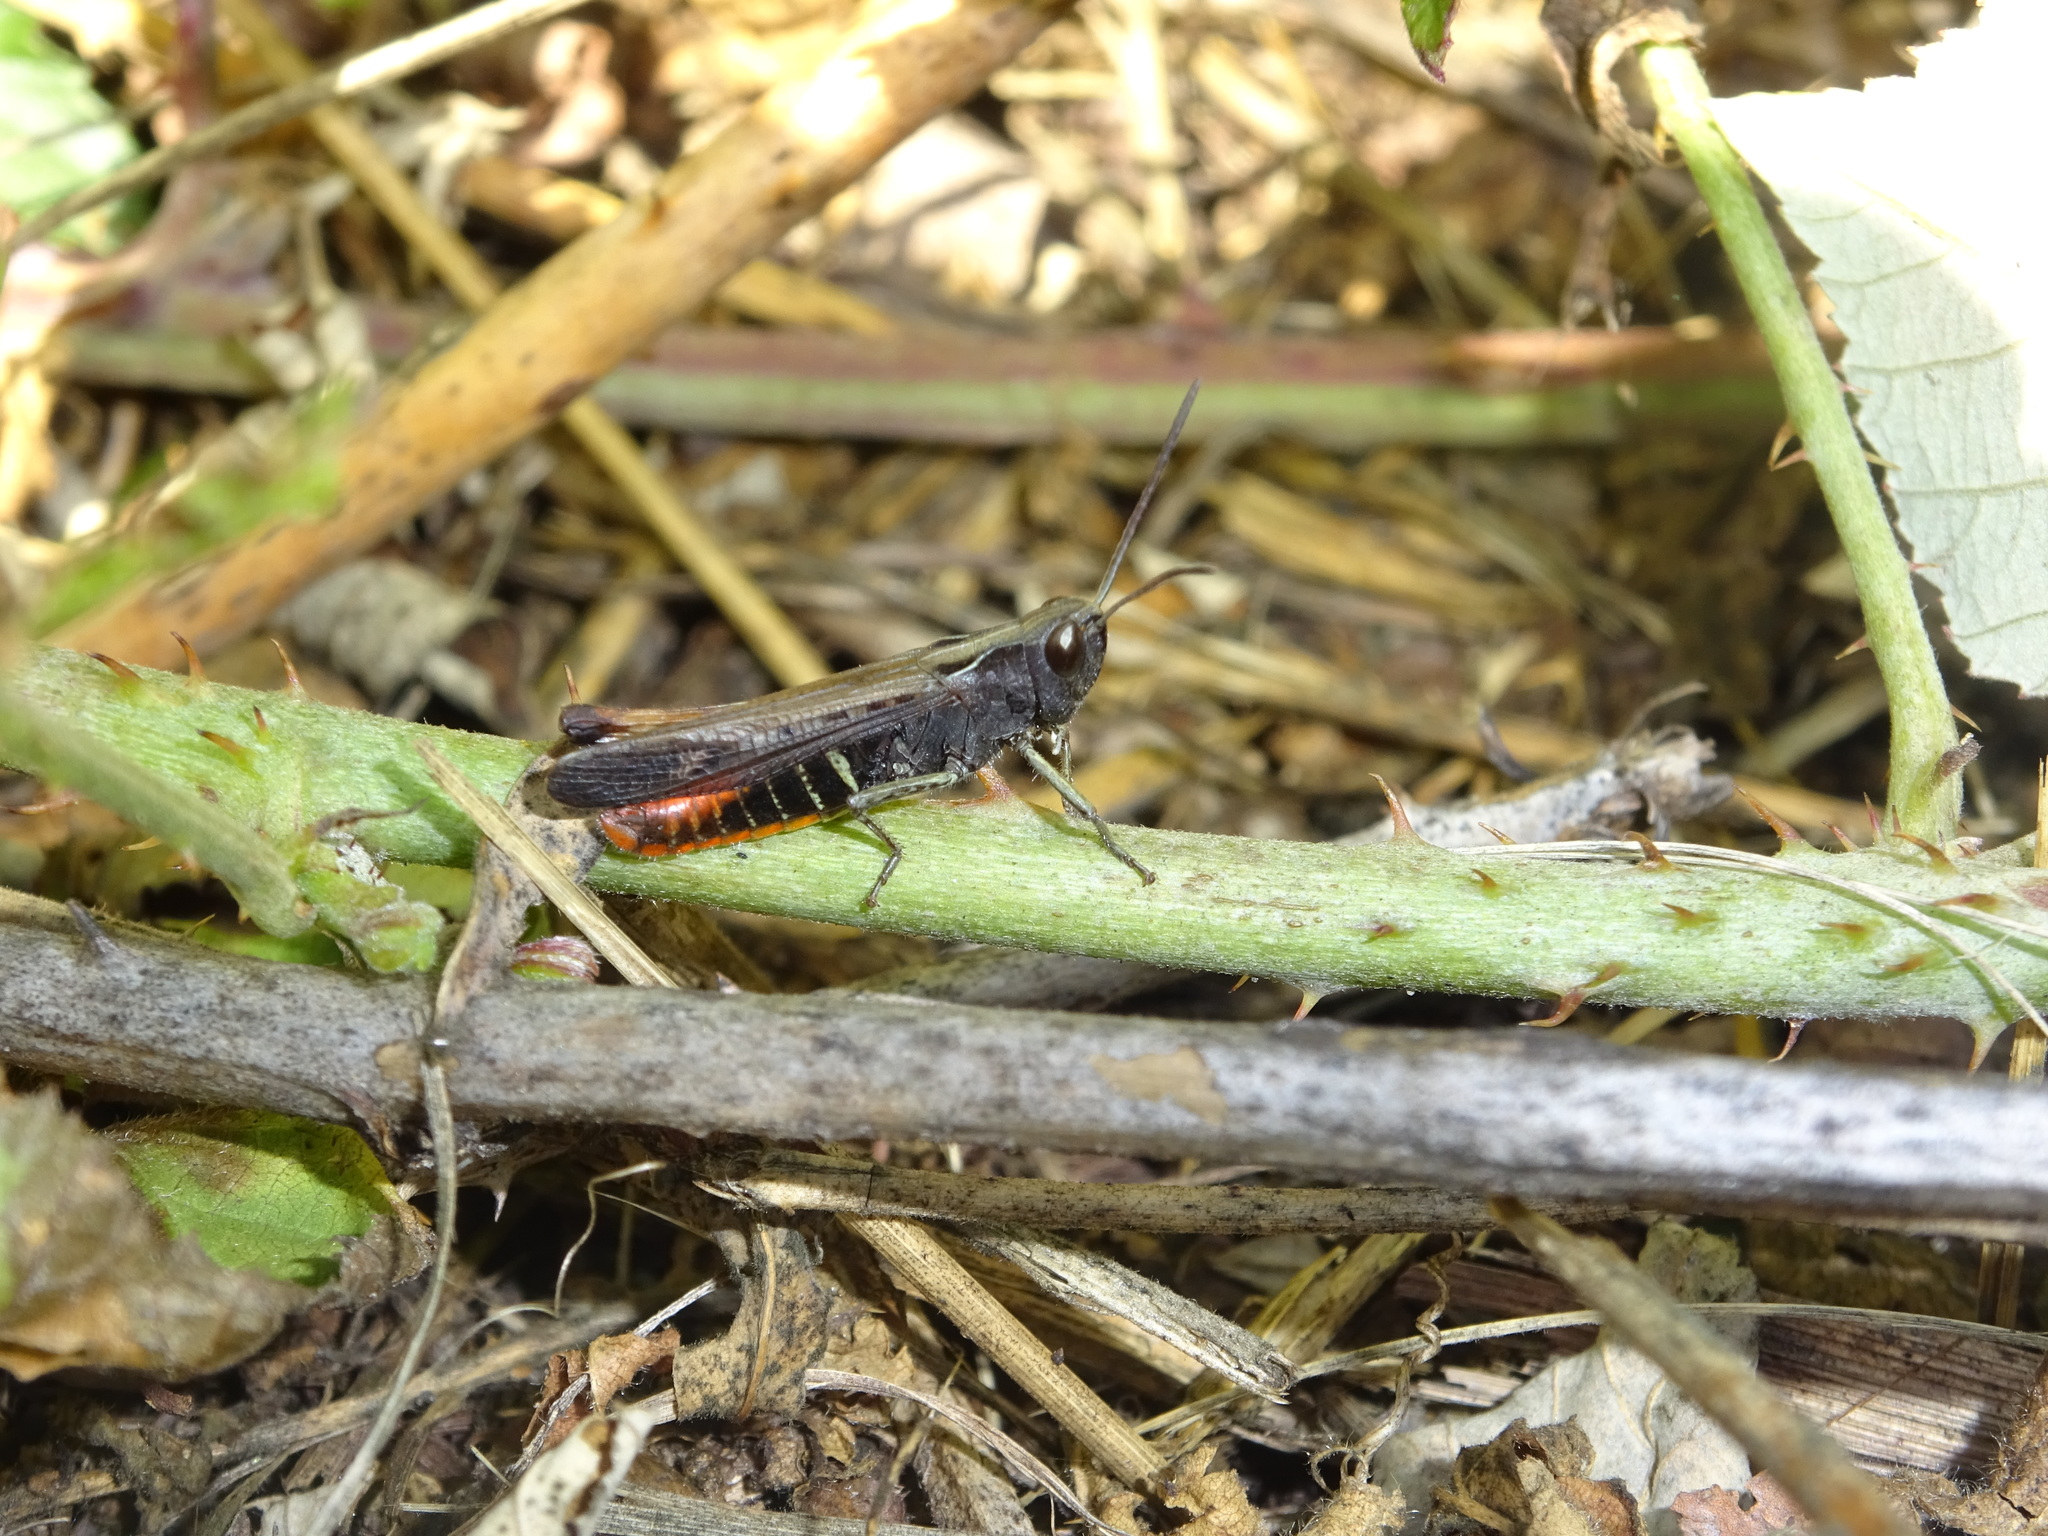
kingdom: Animalia
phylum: Arthropoda
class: Insecta
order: Orthoptera
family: Acrididae
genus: Omocestus
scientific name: Omocestus rufipes
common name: Woodland grasshopper
